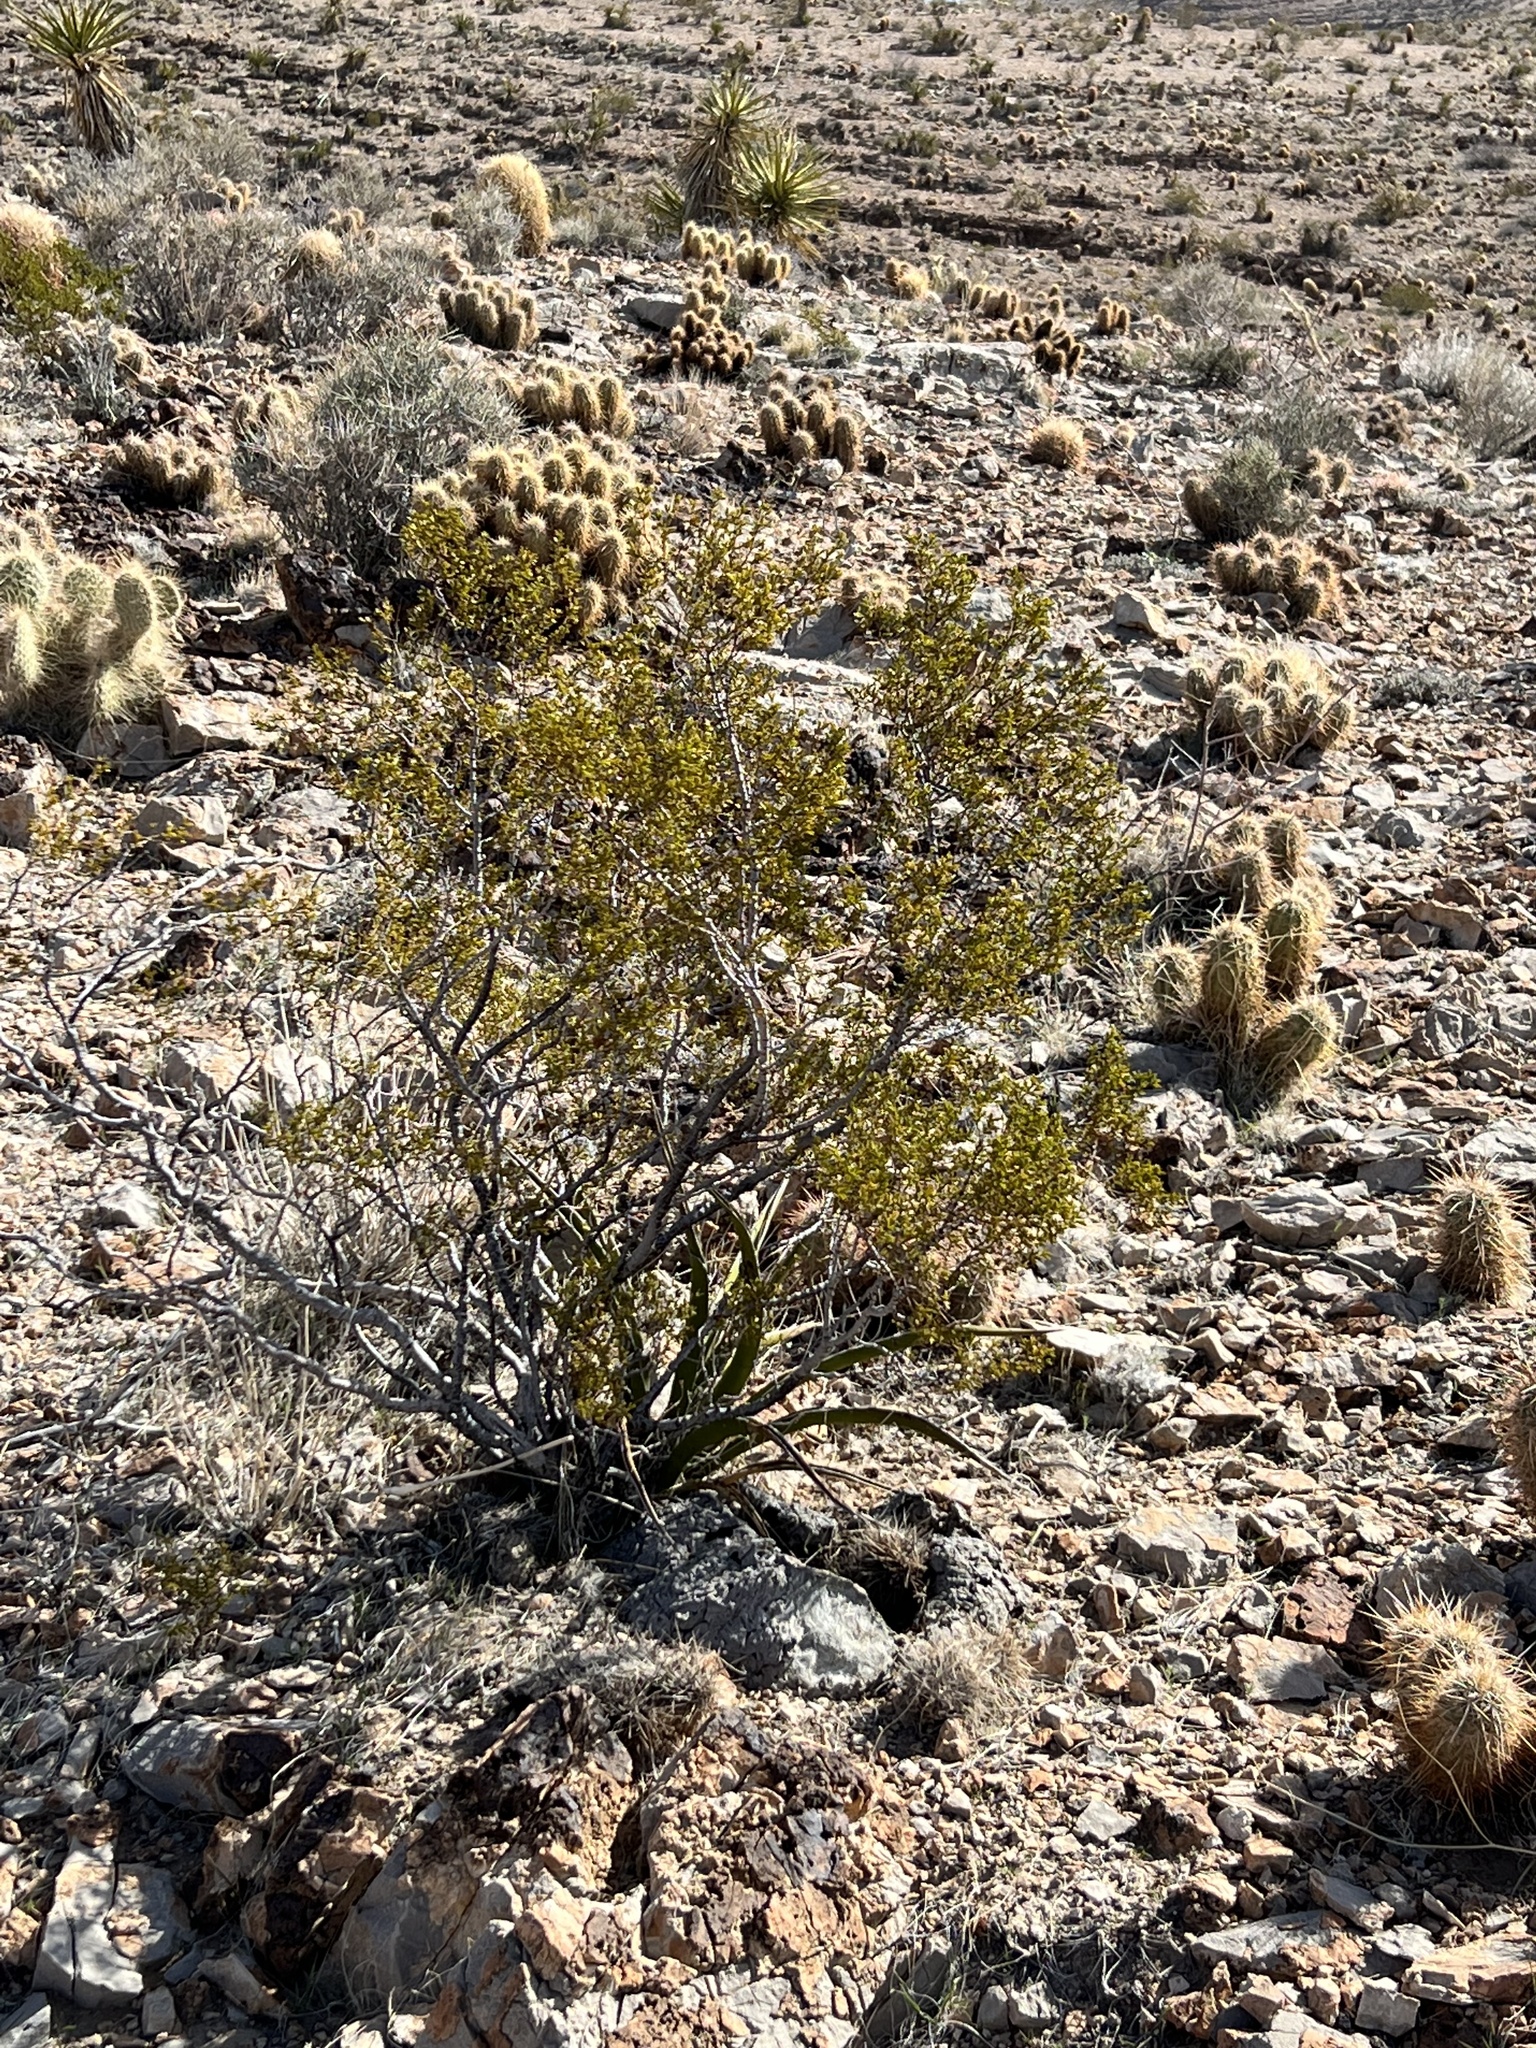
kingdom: Plantae
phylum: Tracheophyta
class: Magnoliopsida
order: Zygophyllales
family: Zygophyllaceae
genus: Larrea
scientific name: Larrea tridentata
